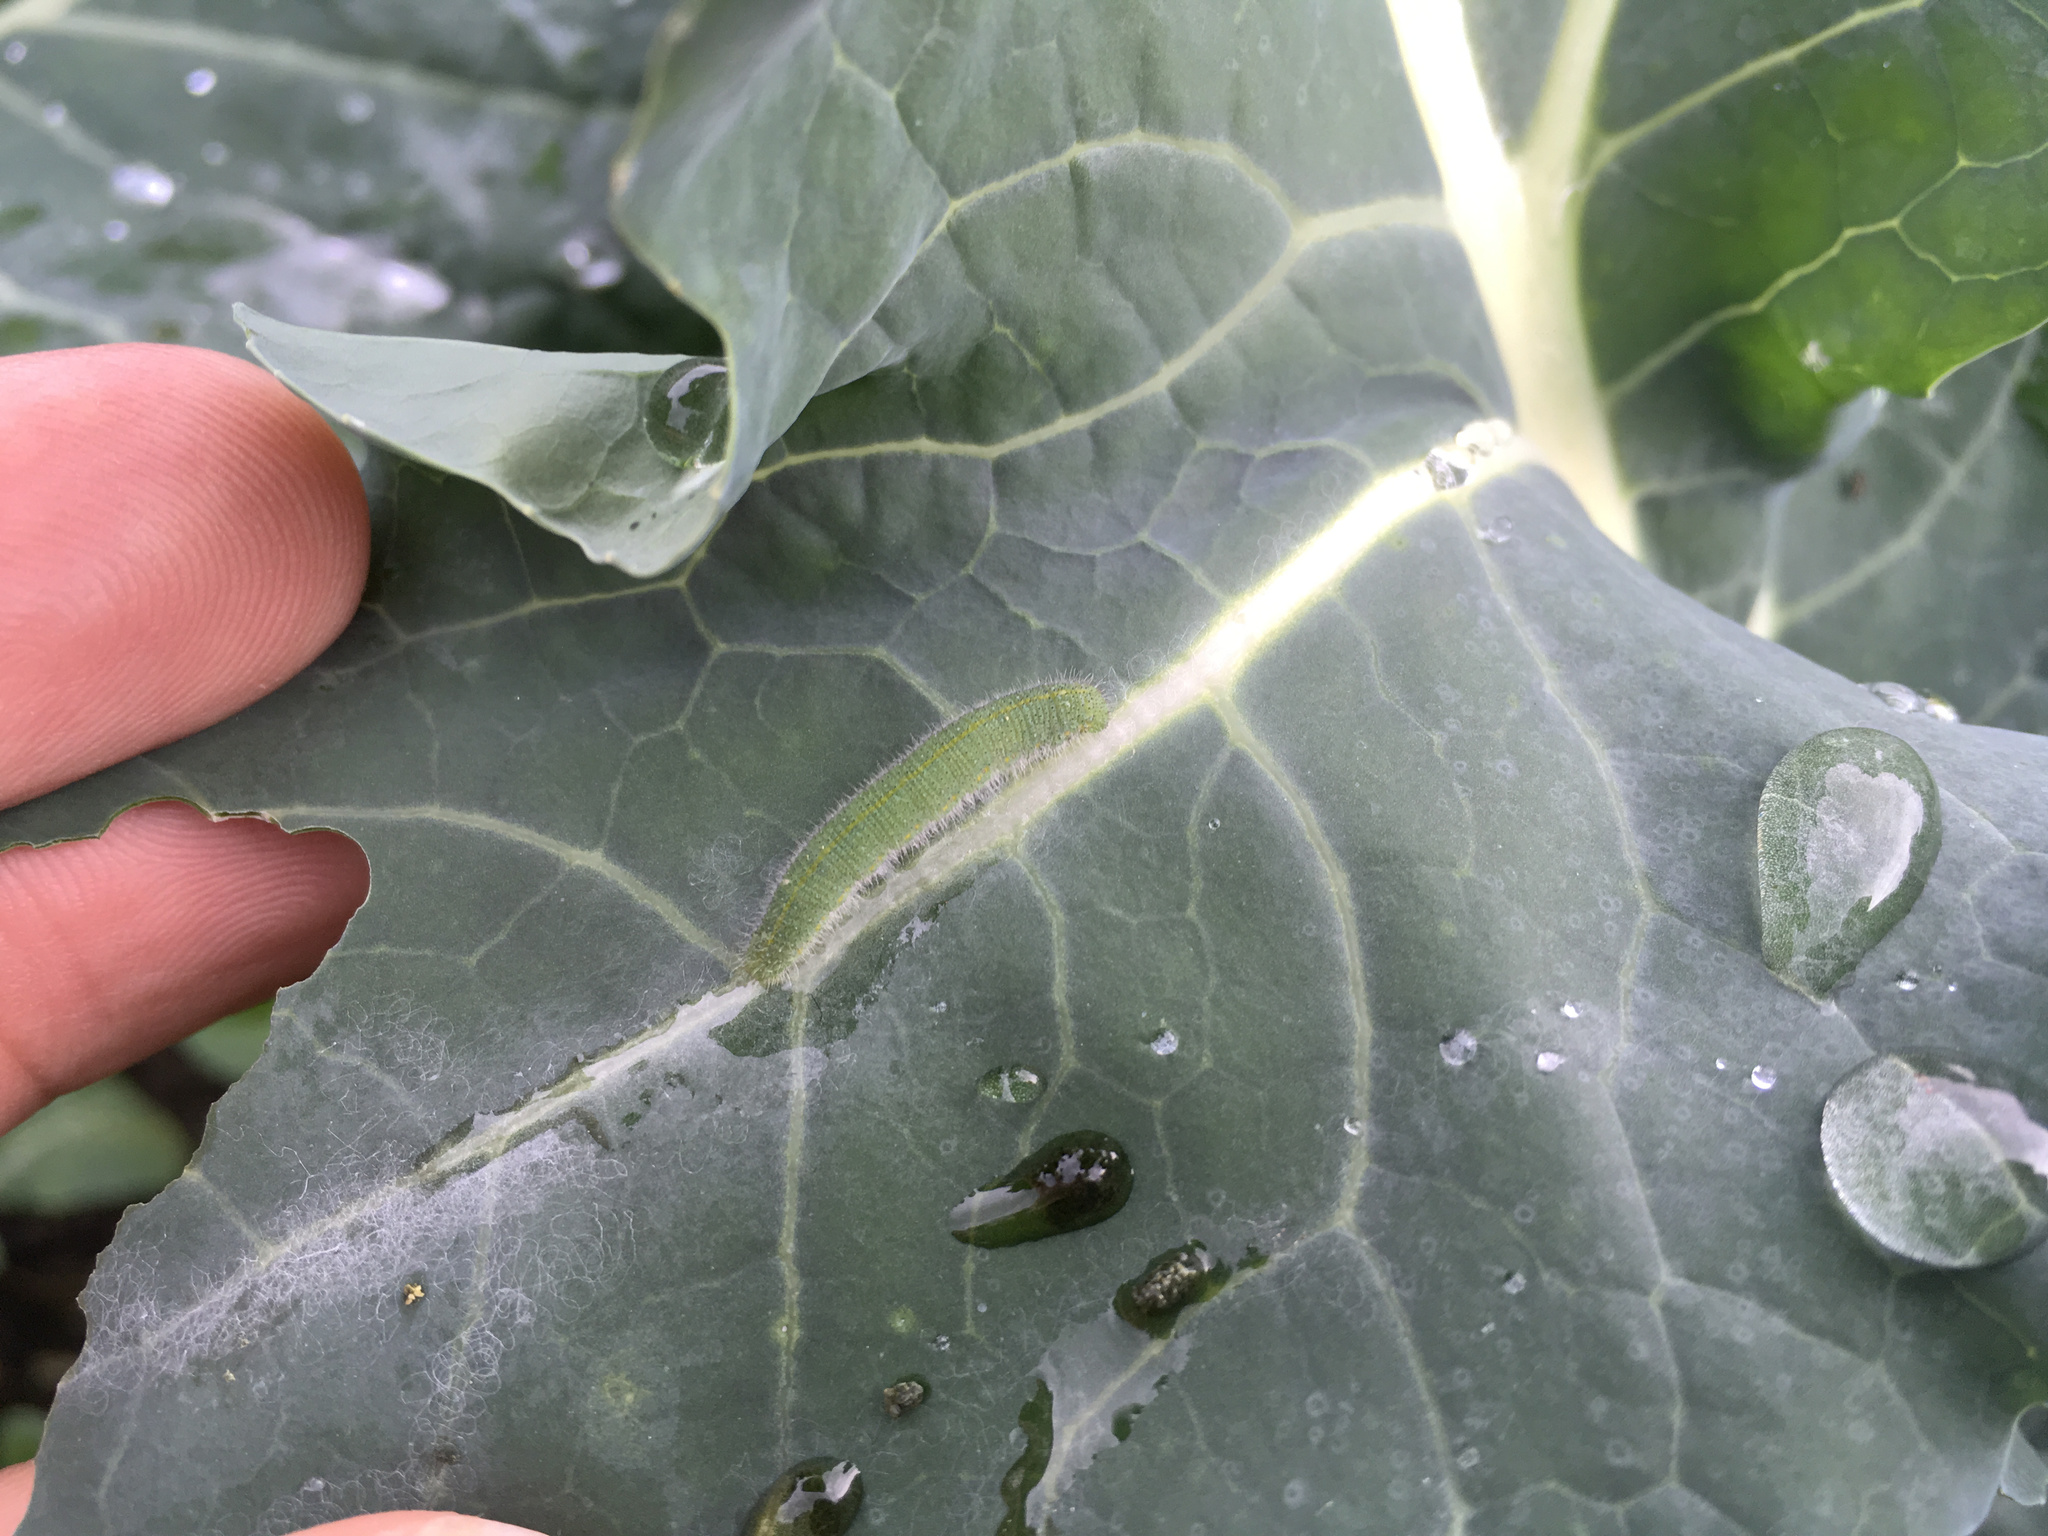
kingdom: Animalia
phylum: Arthropoda
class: Insecta
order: Lepidoptera
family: Pieridae
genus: Pieris
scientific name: Pieris rapae
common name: Small white
